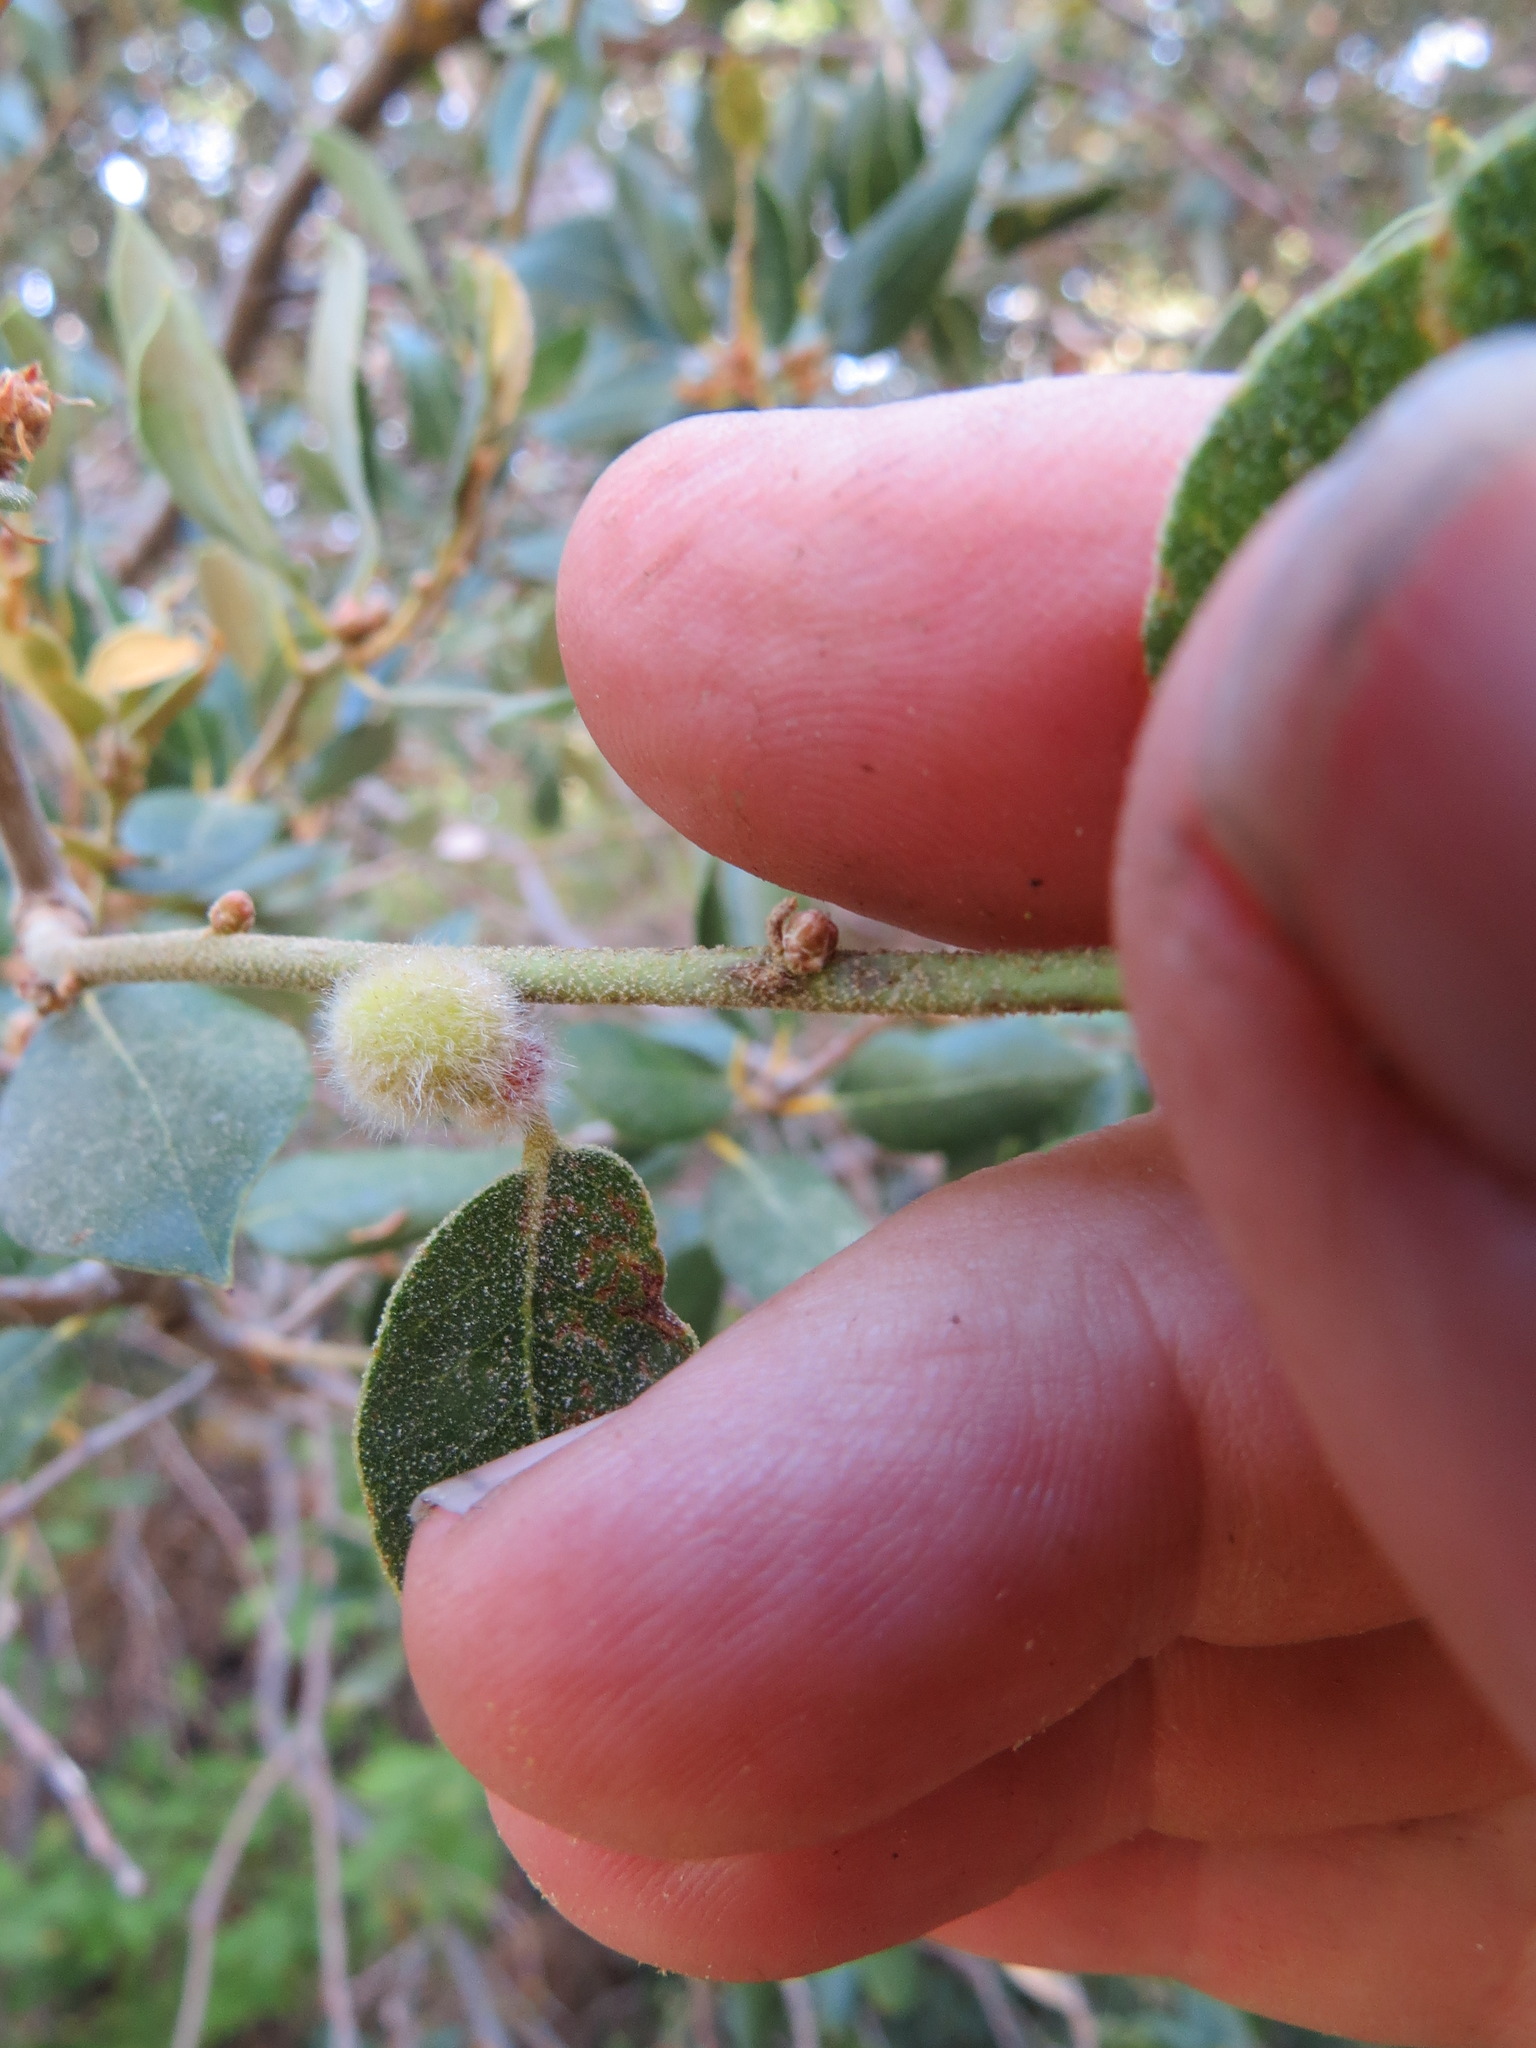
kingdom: Animalia
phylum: Arthropoda
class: Insecta
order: Hymenoptera
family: Cynipidae
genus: Disholandricus
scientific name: Disholandricus
